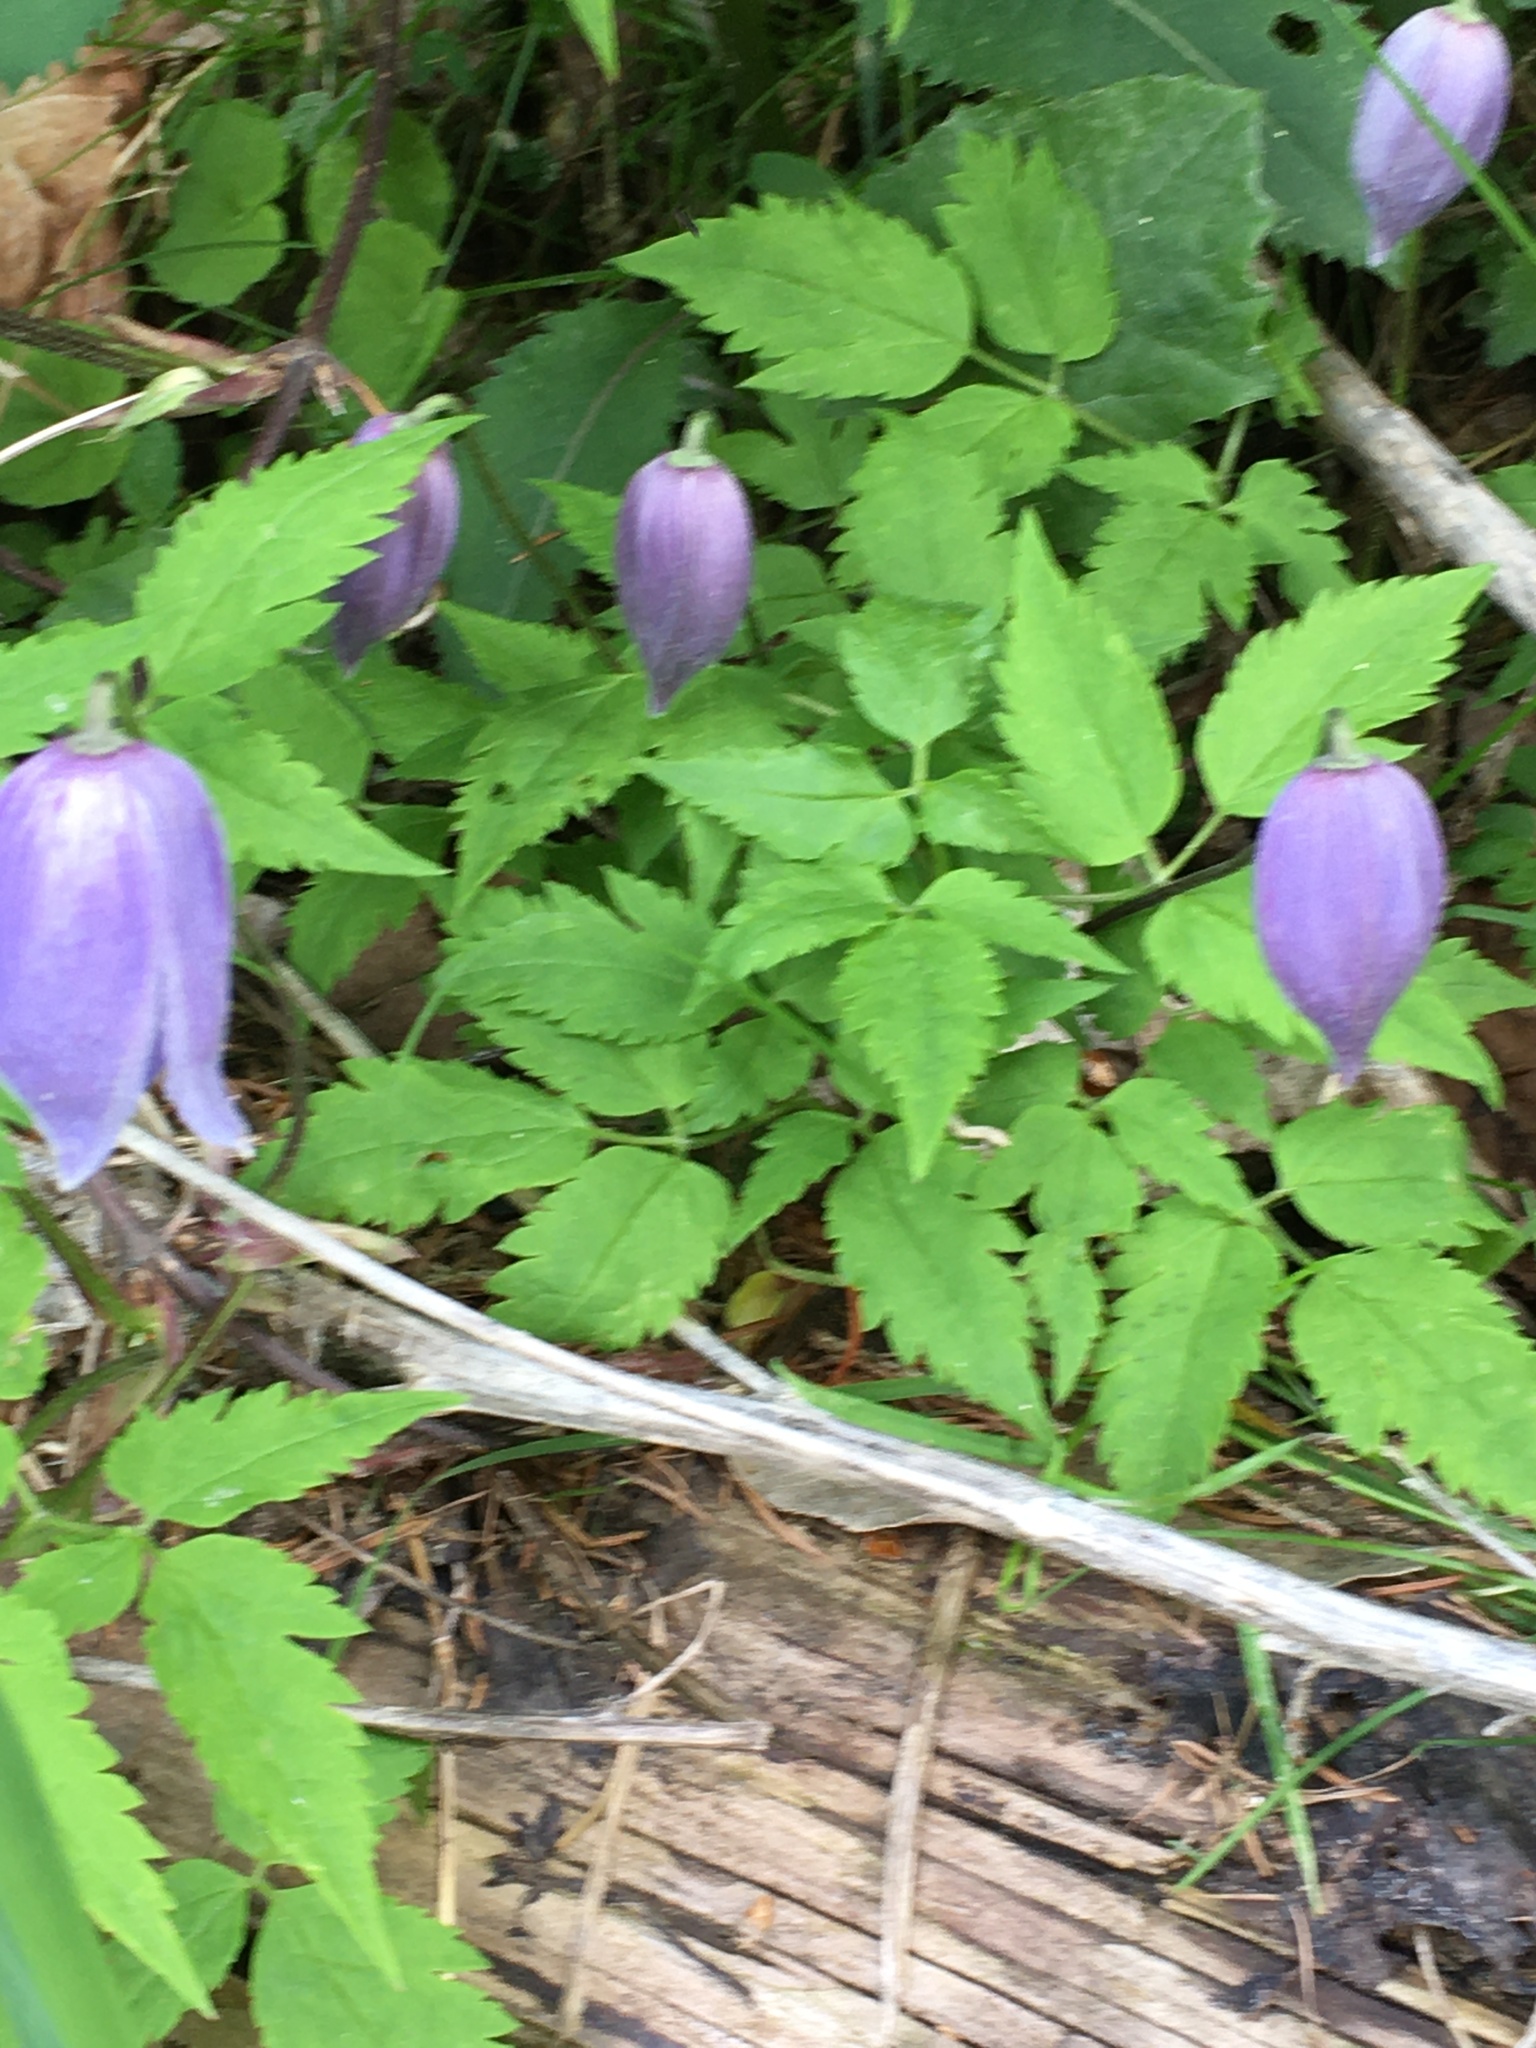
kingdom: Plantae
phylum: Tracheophyta
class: Magnoliopsida
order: Ranunculales
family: Ranunculaceae
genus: Clematis
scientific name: Clematis alpina
